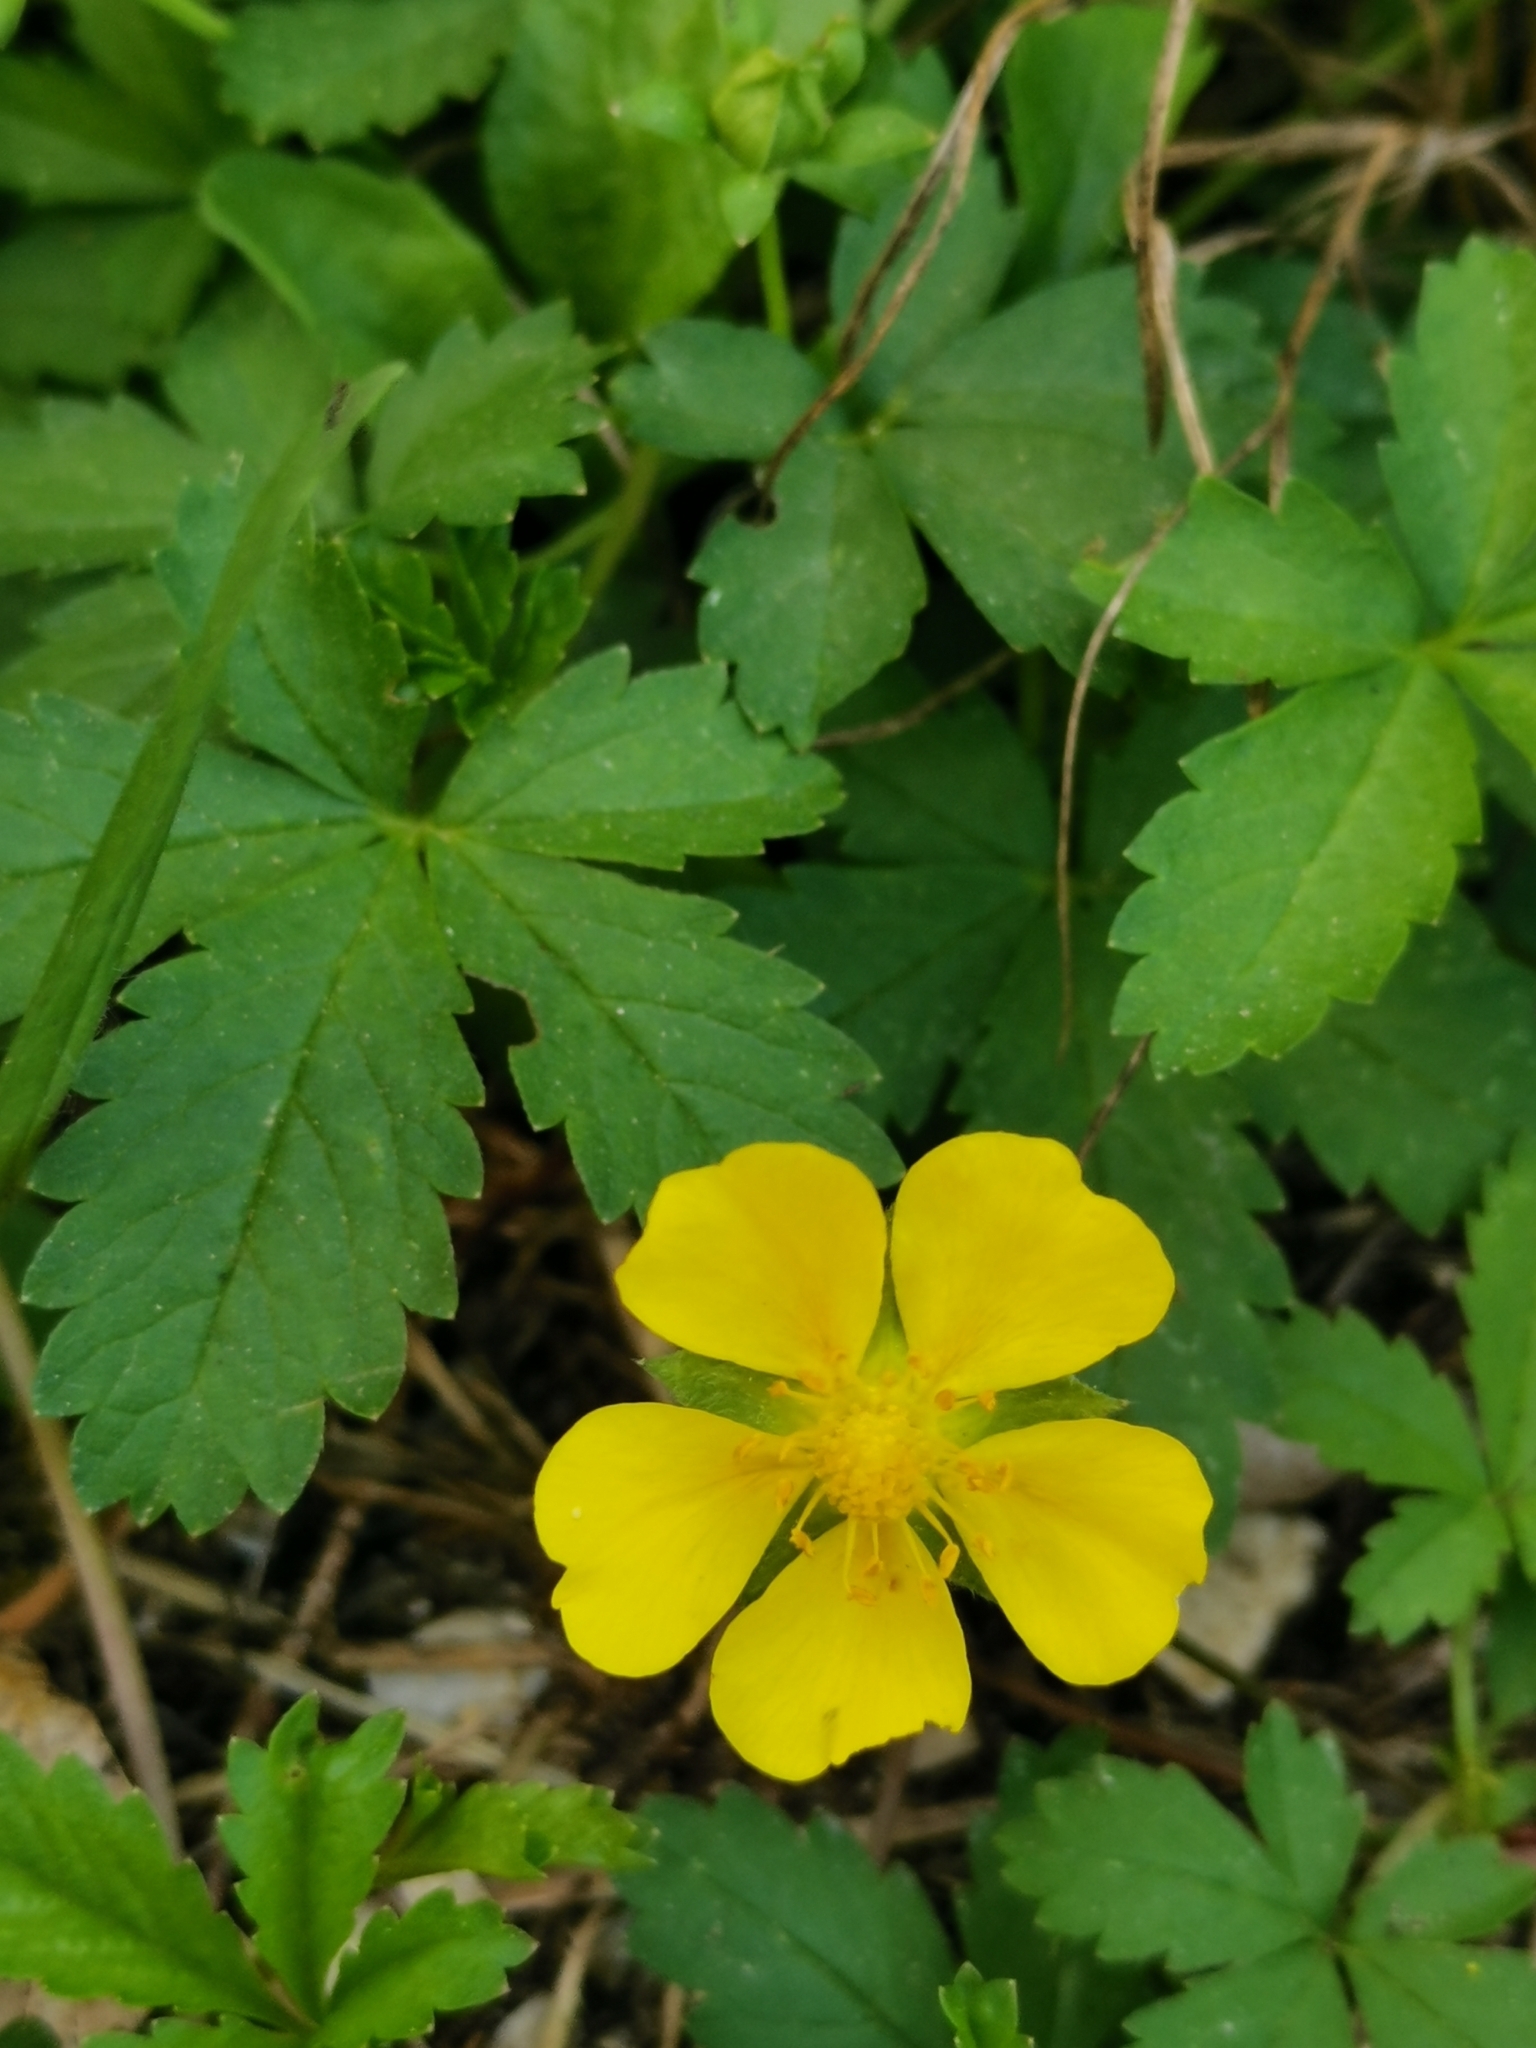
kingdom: Plantae
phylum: Tracheophyta
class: Magnoliopsida
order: Rosales
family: Rosaceae
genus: Potentilla
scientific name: Potentilla reptans
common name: Creeping cinquefoil
